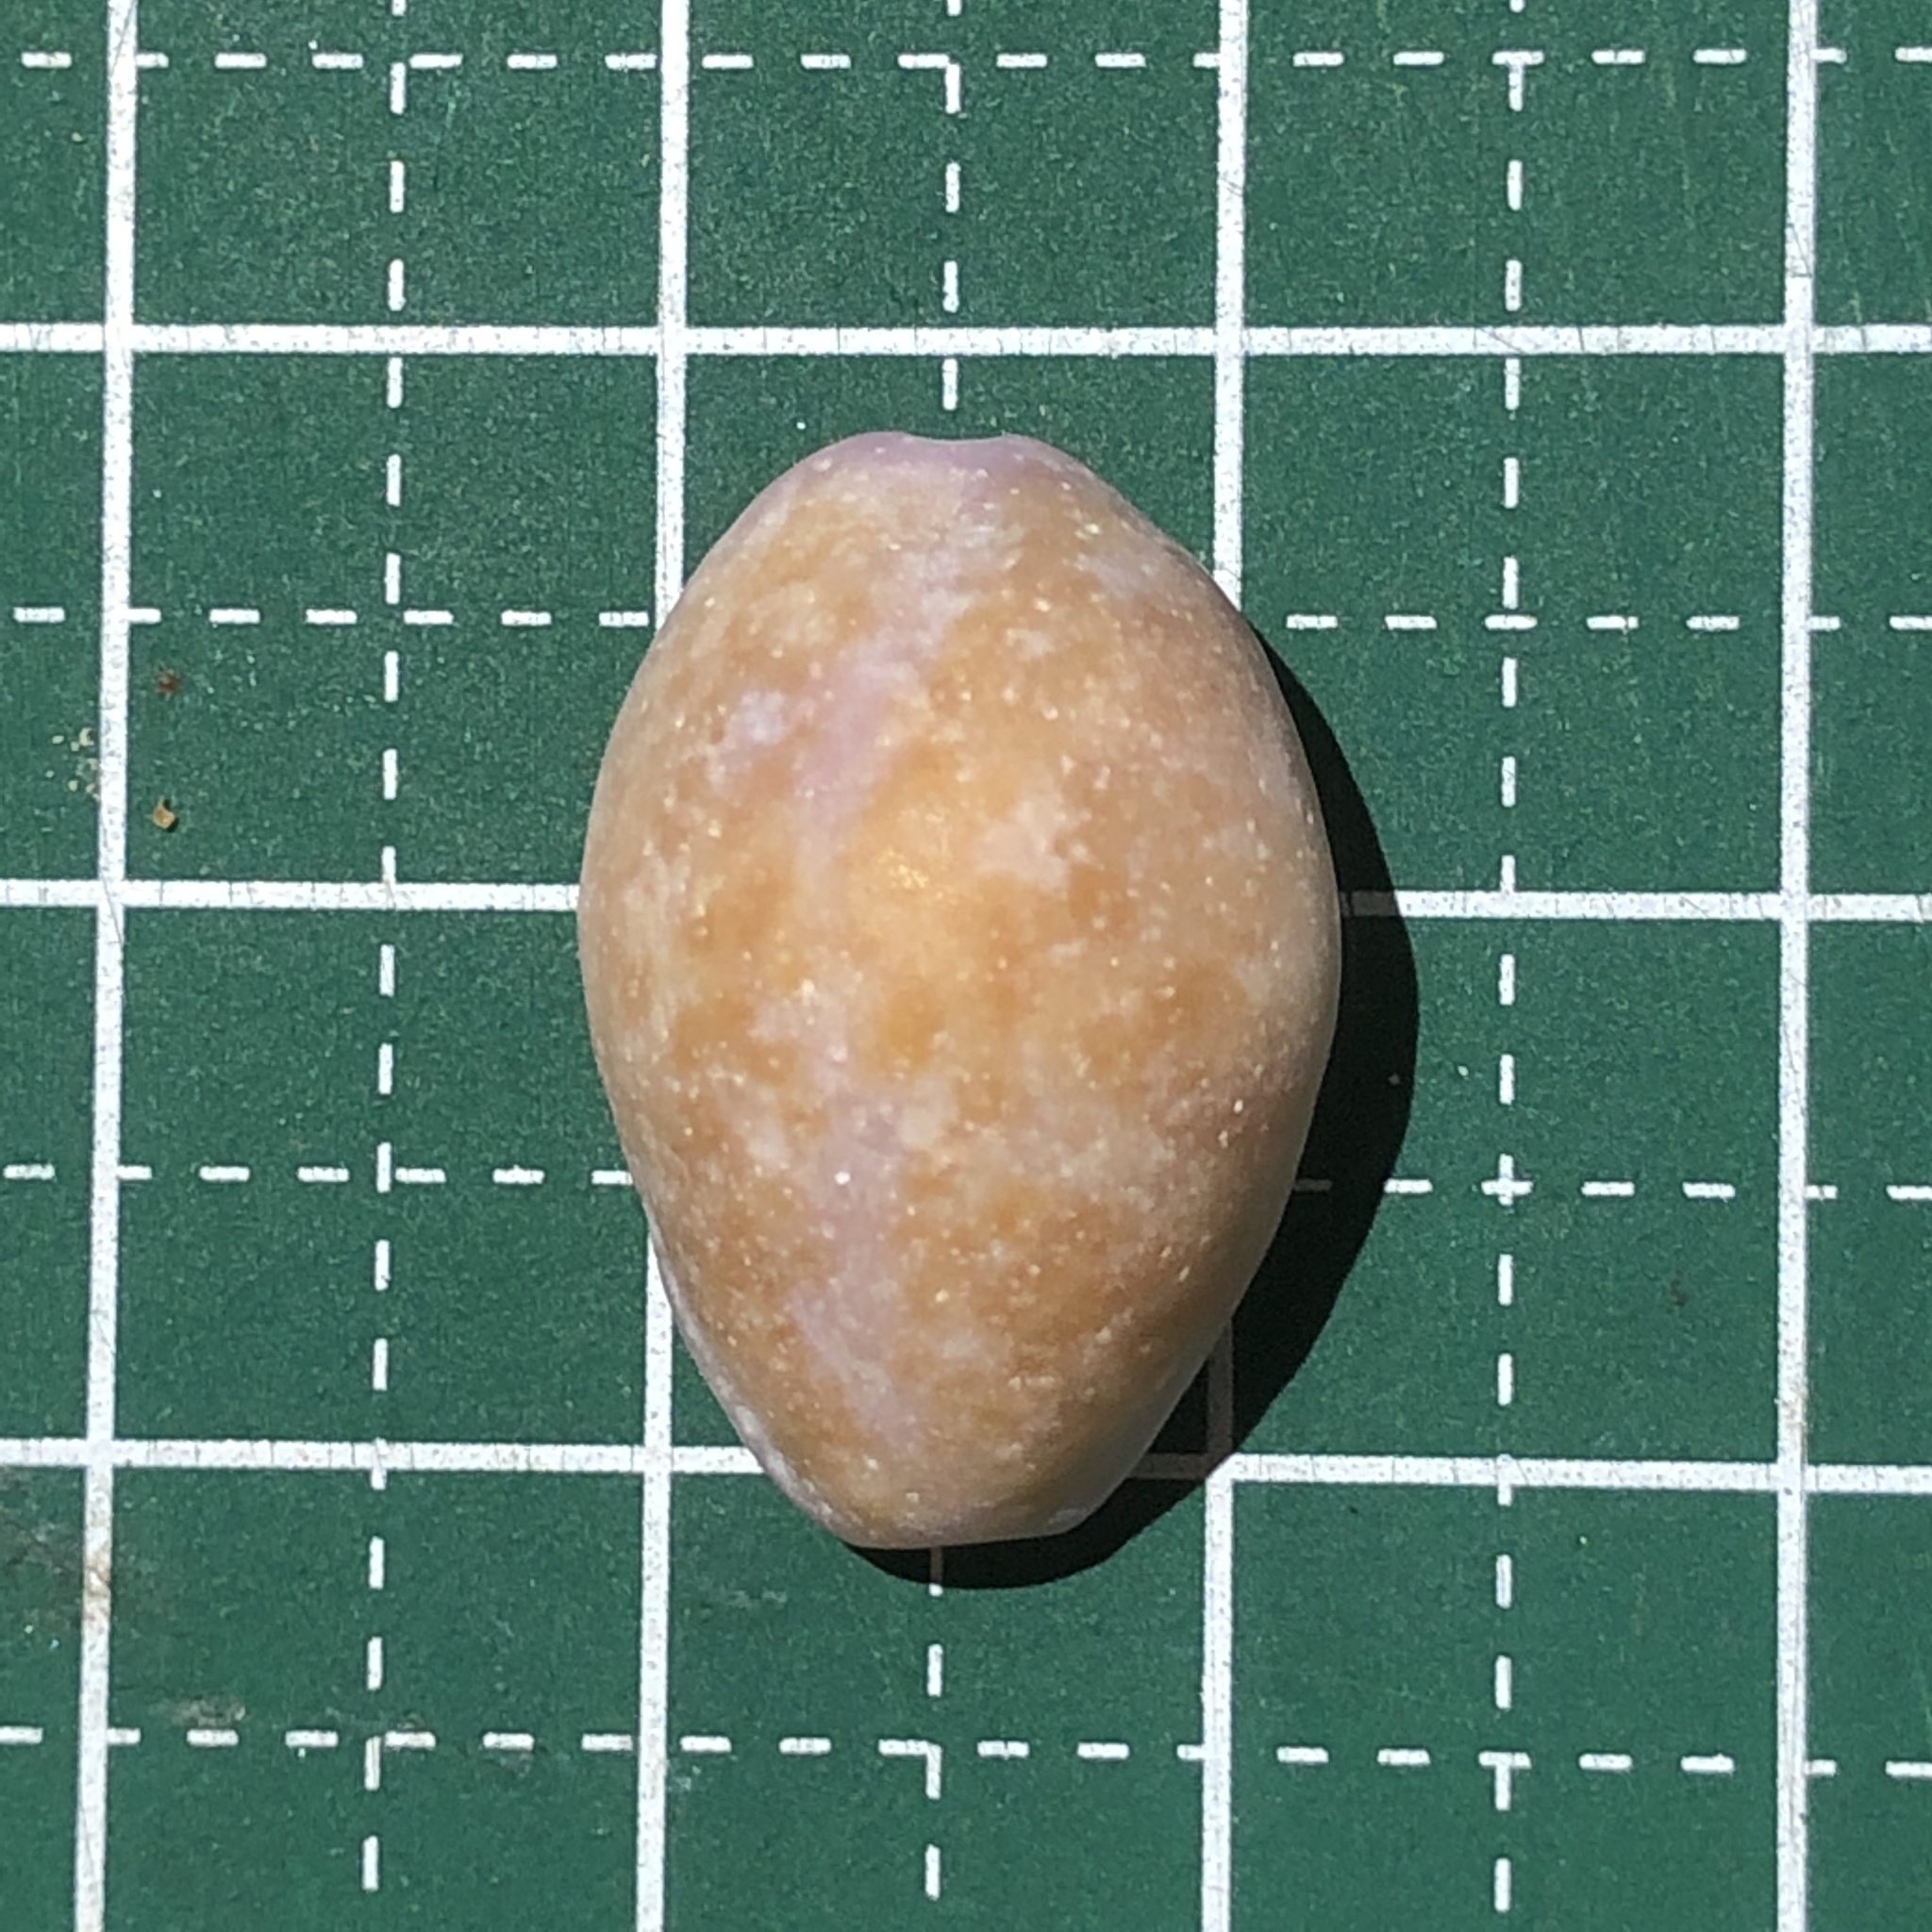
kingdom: Animalia
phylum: Mollusca
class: Gastropoda
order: Littorinimorpha
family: Cypraeidae
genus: Naria
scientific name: Naria poraria
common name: Cowrie
